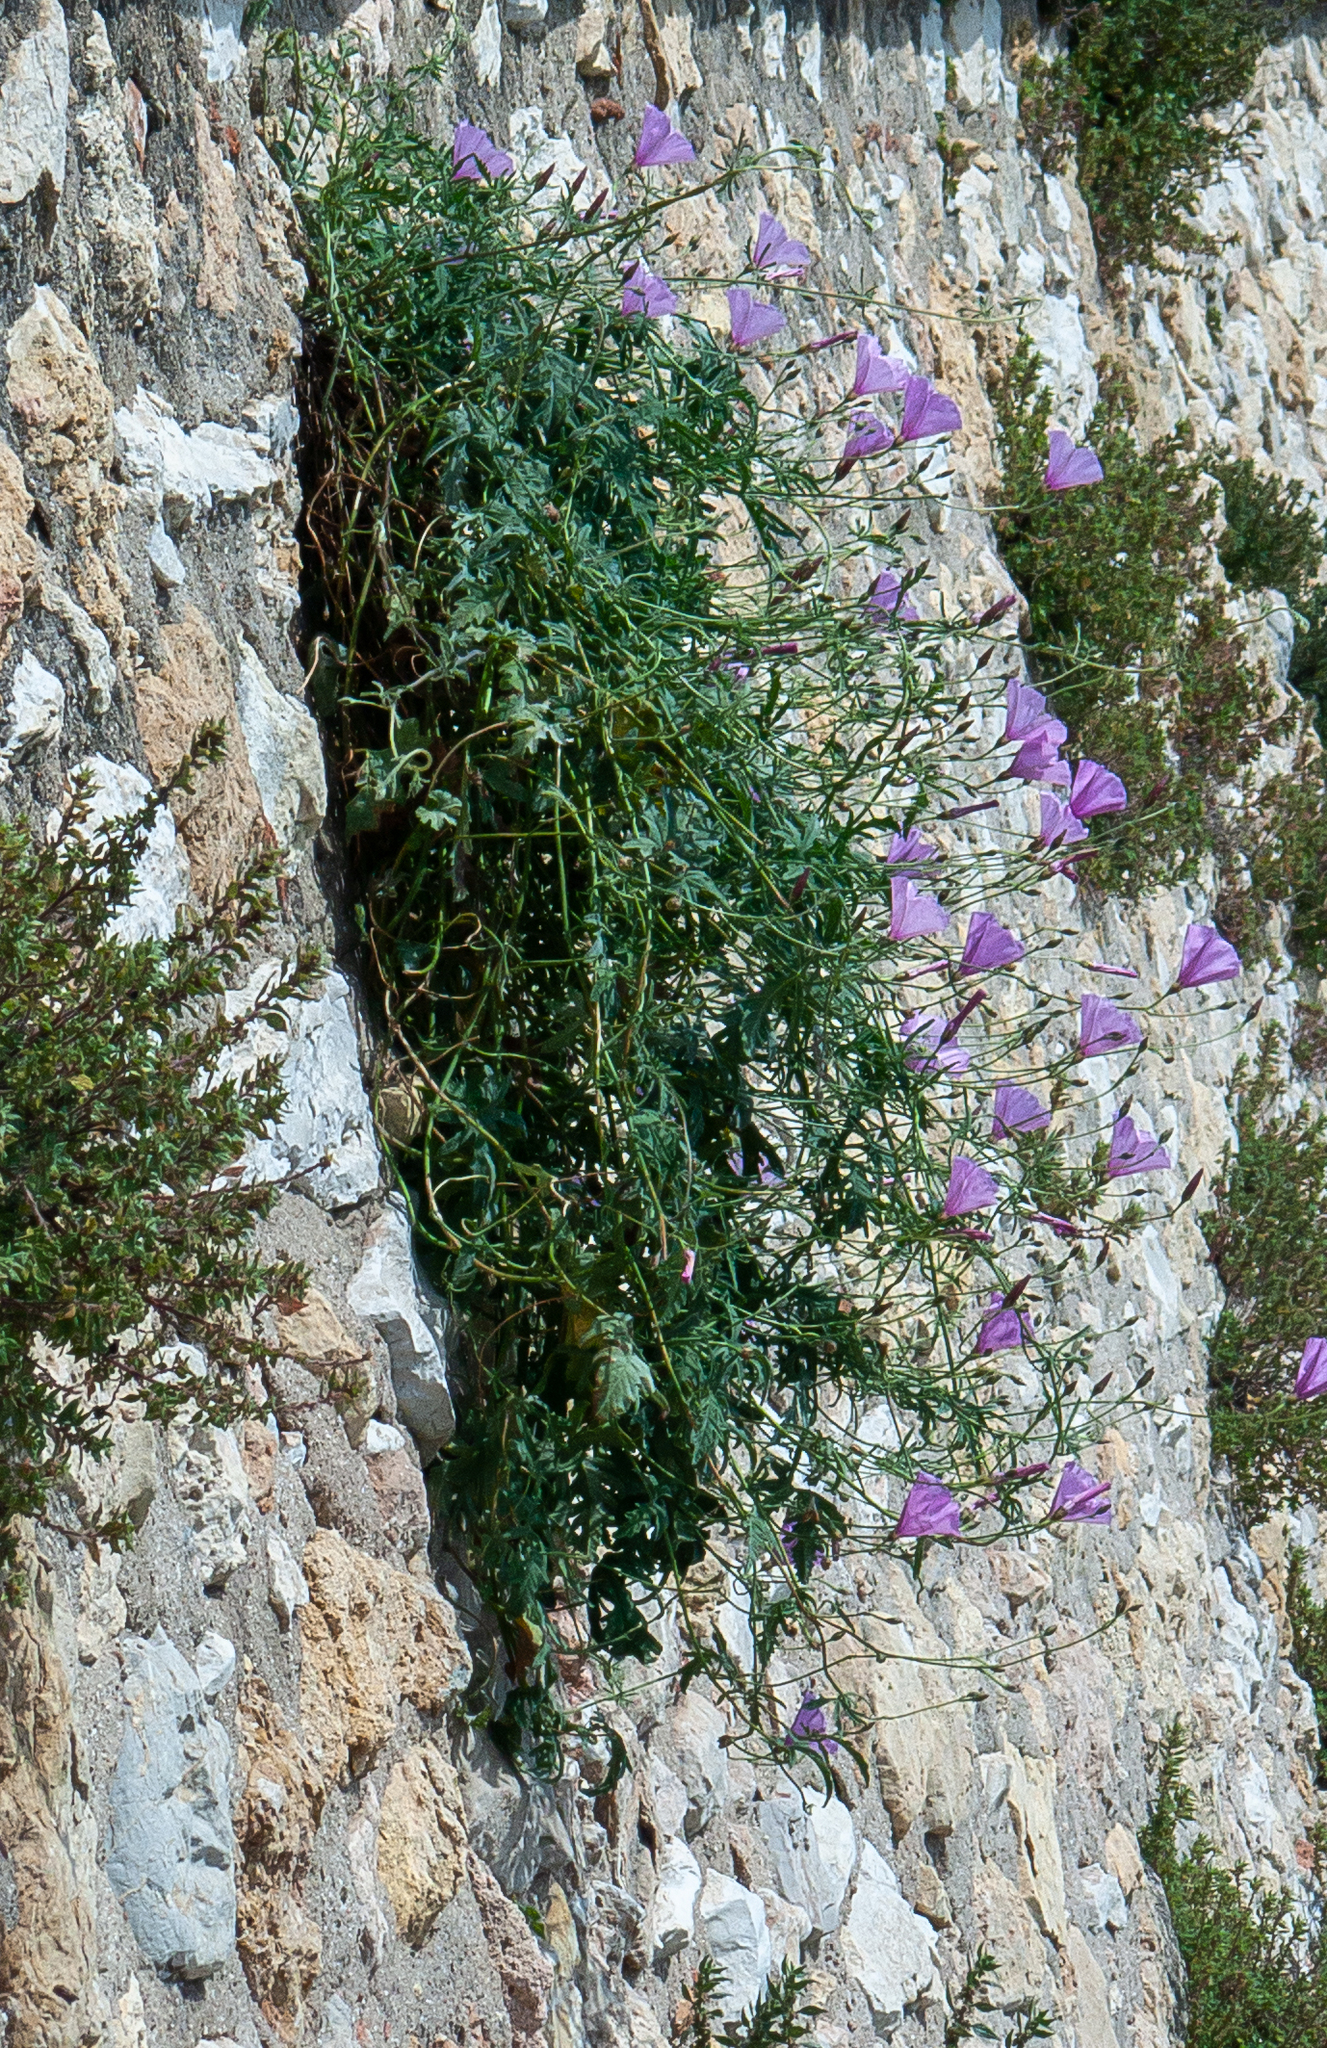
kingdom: Plantae
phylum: Tracheophyta
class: Magnoliopsida
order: Solanales
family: Convolvulaceae
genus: Convolvulus
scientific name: Convolvulus althaeoides
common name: Mallow bindweed
